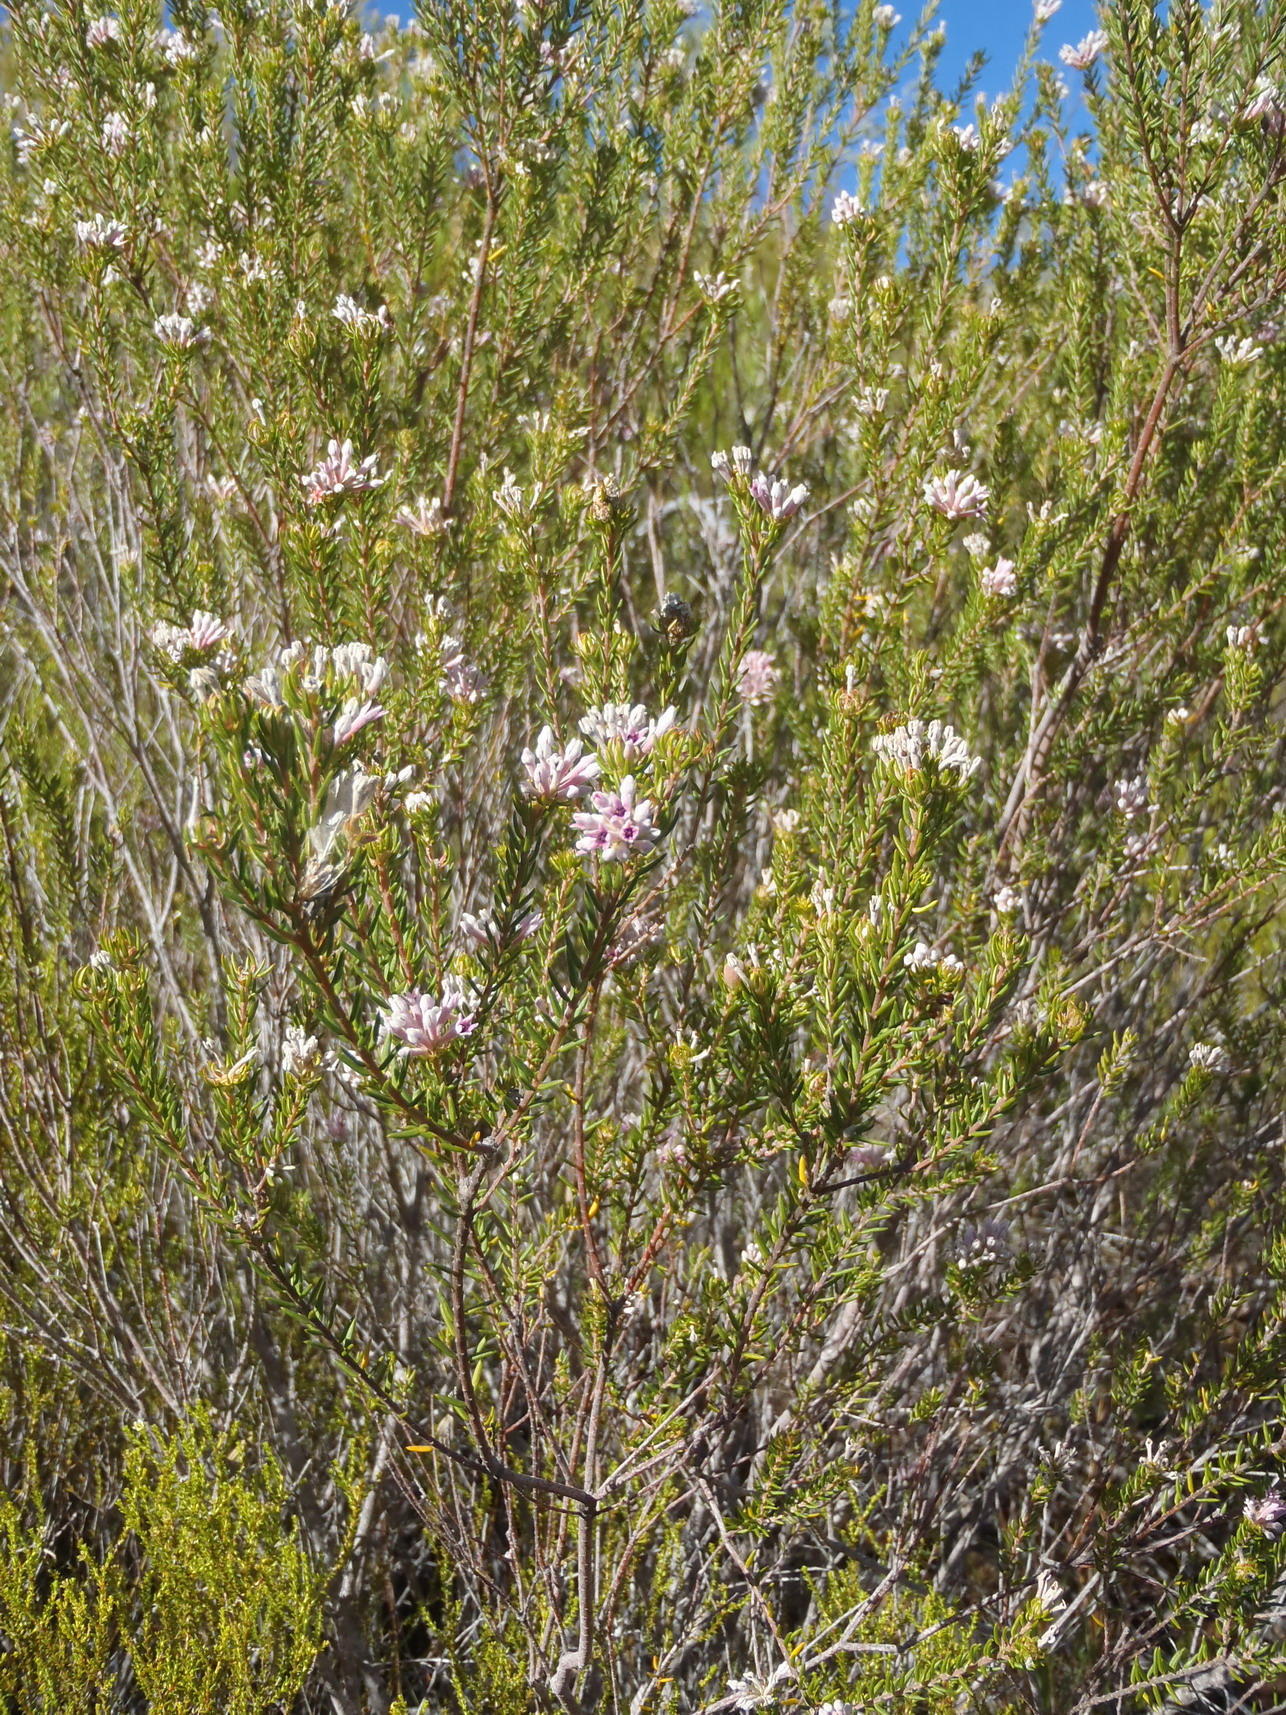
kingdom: Plantae
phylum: Tracheophyta
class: Magnoliopsida
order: Rosales
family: Rhamnaceae
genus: Phylica
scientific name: Phylica lachneaeoides
